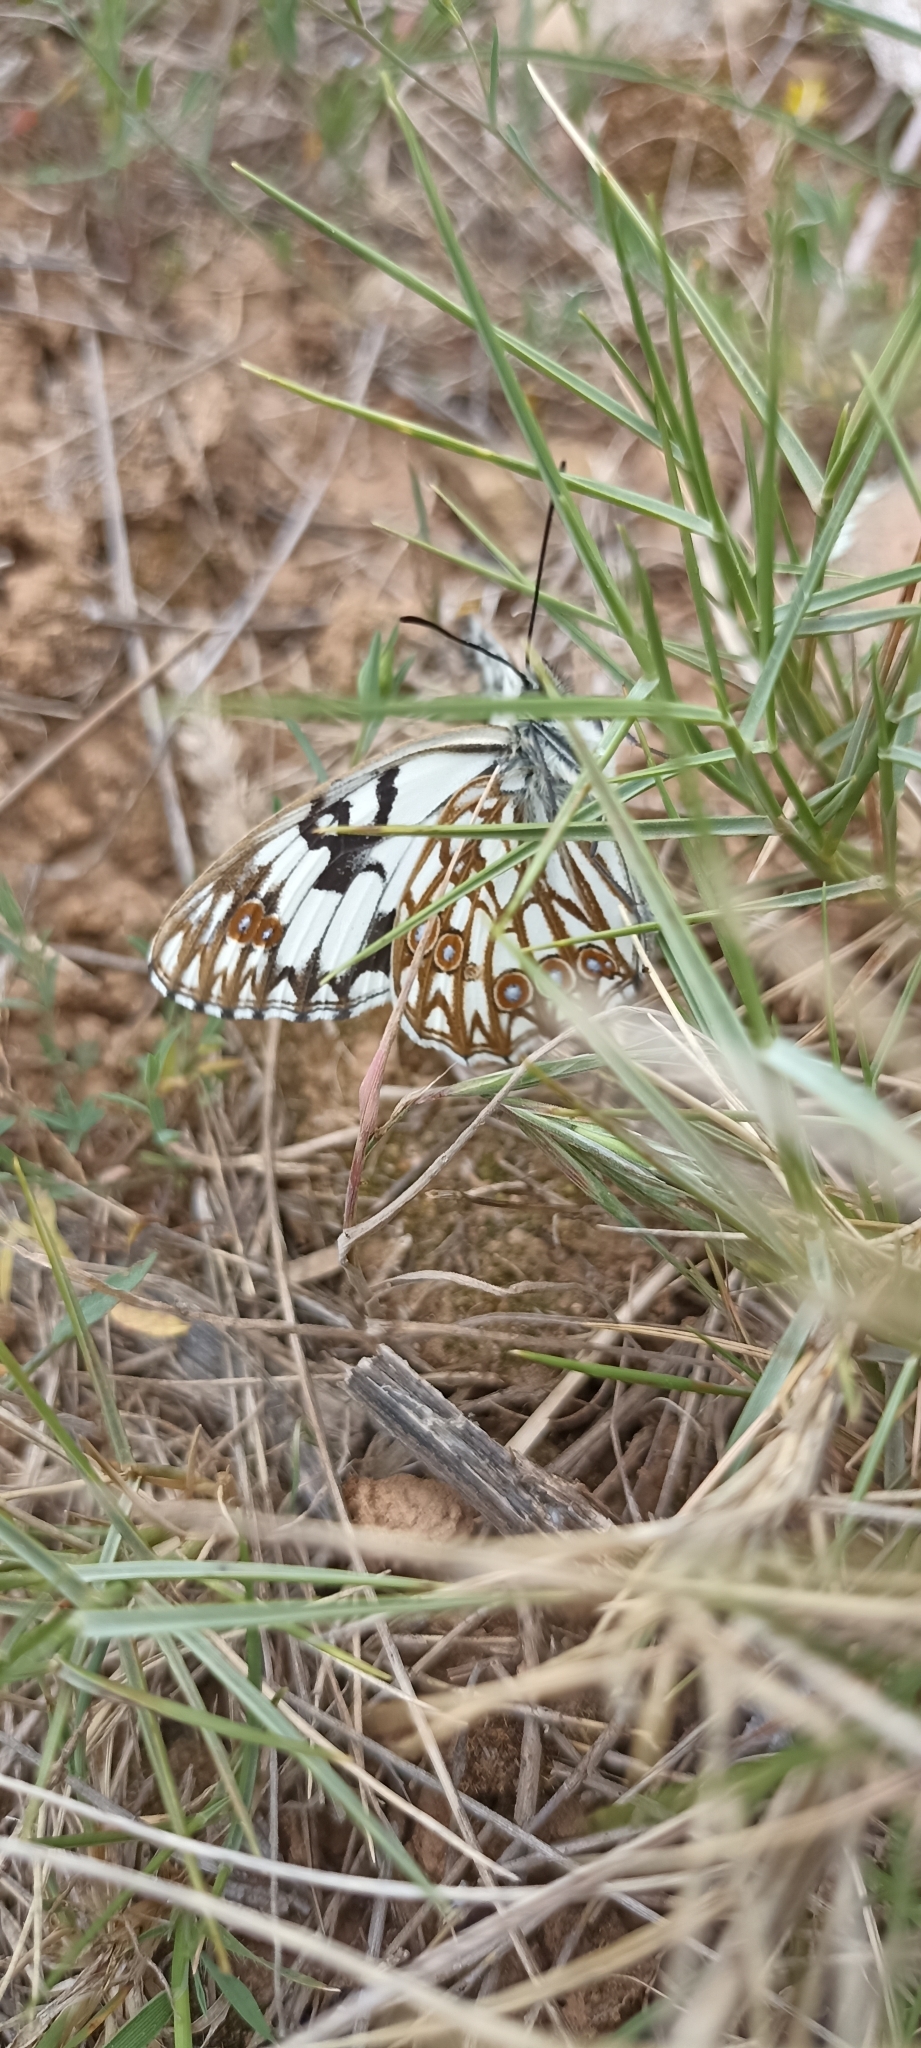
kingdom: Animalia
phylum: Arthropoda
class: Insecta
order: Lepidoptera
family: Nymphalidae
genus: Melanargia
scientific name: Melanargia occitanica
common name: Western marbled white
